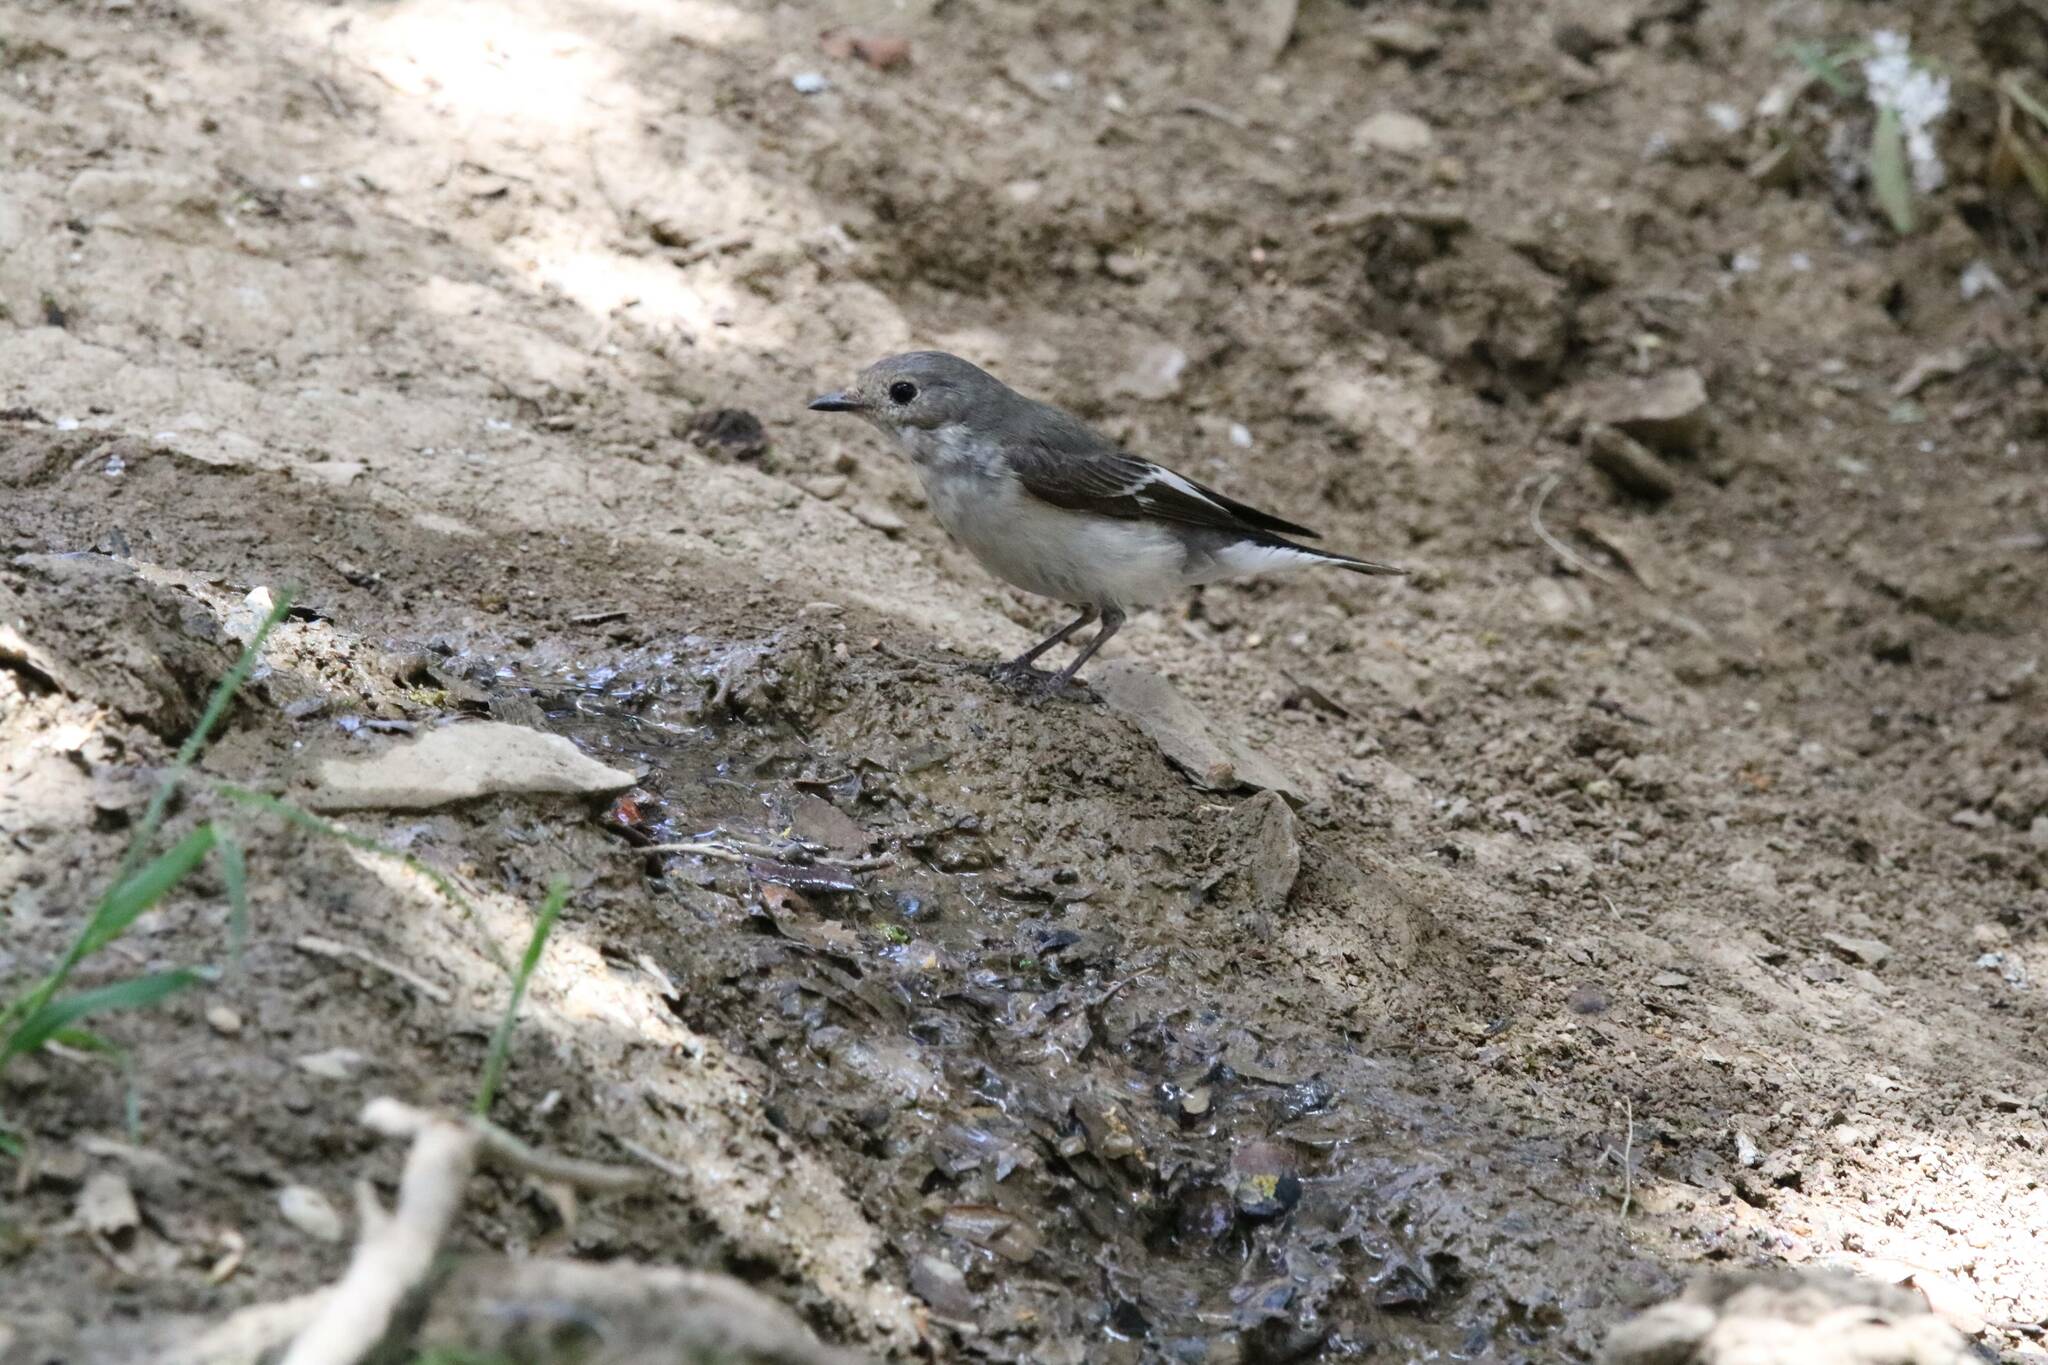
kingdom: Animalia
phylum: Chordata
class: Aves
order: Passeriformes
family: Muscicapidae
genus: Ficedula
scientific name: Ficedula speculigera
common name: Atlas pied flycatcher
